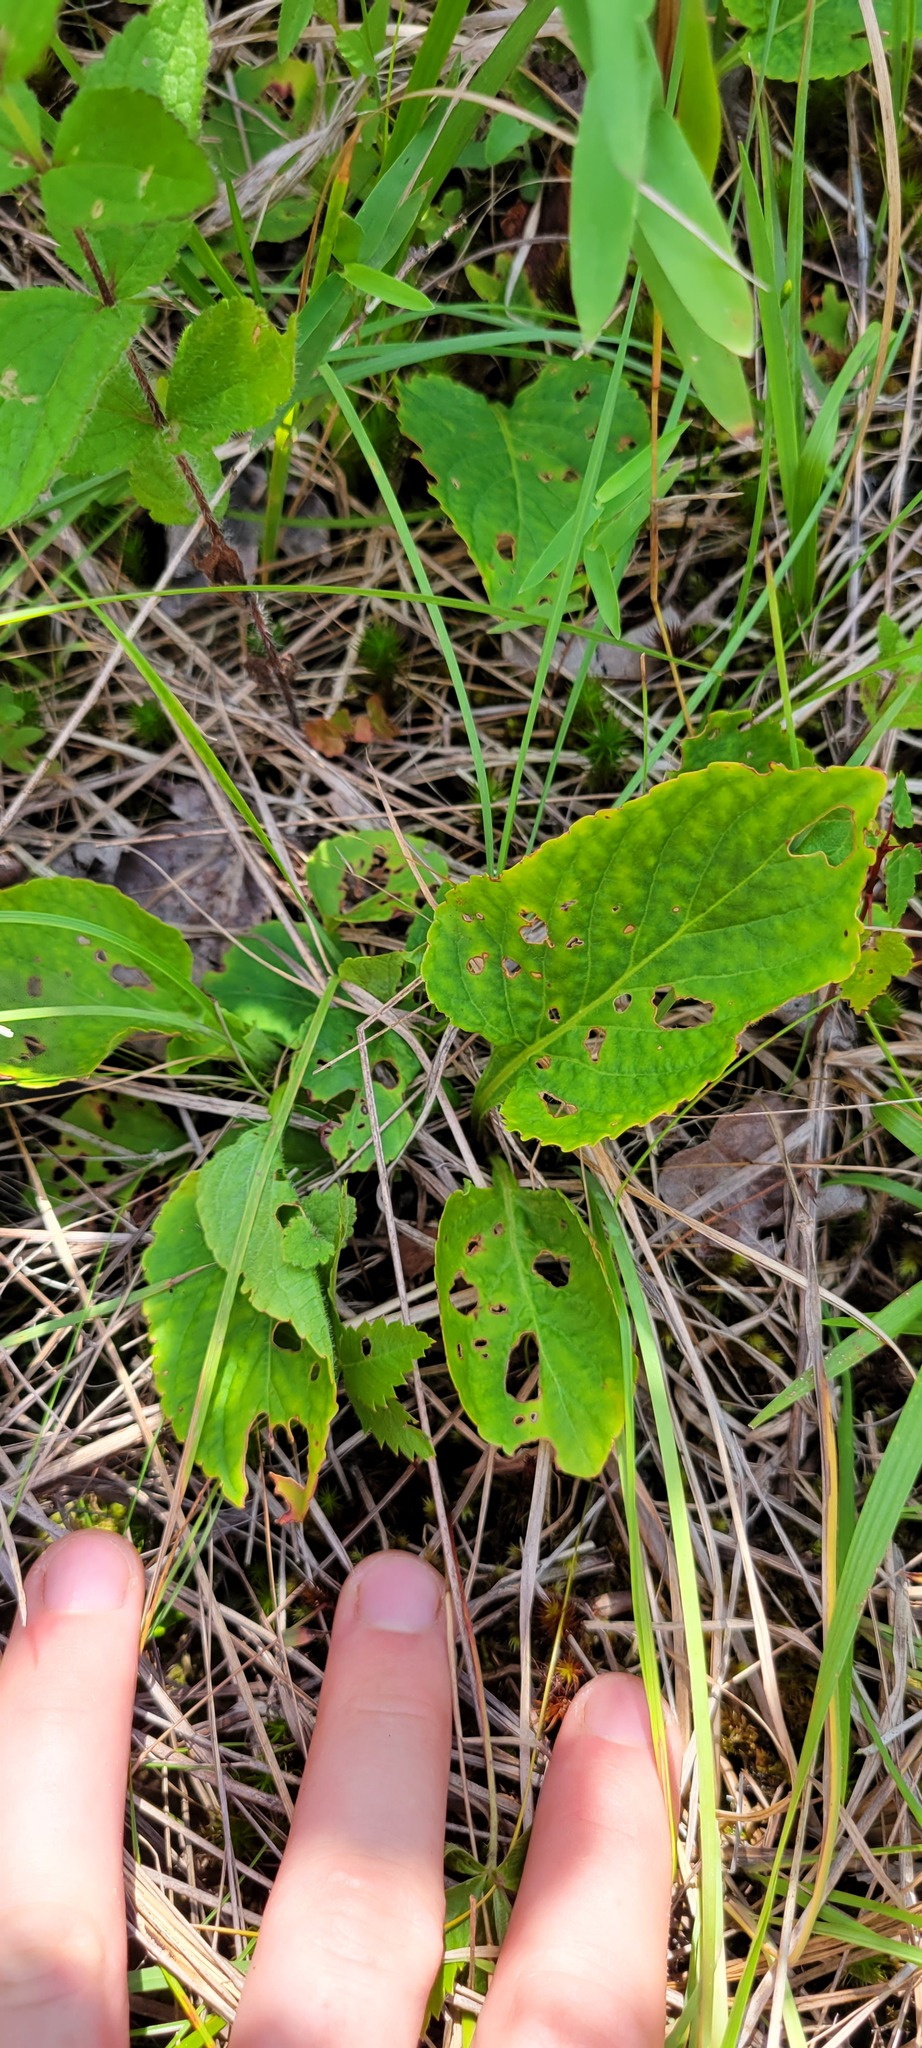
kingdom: Plantae
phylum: Tracheophyta
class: Magnoliopsida
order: Malpighiales
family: Violaceae
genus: Viola
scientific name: Viola primulifolia
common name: Primrose-leaf violet
